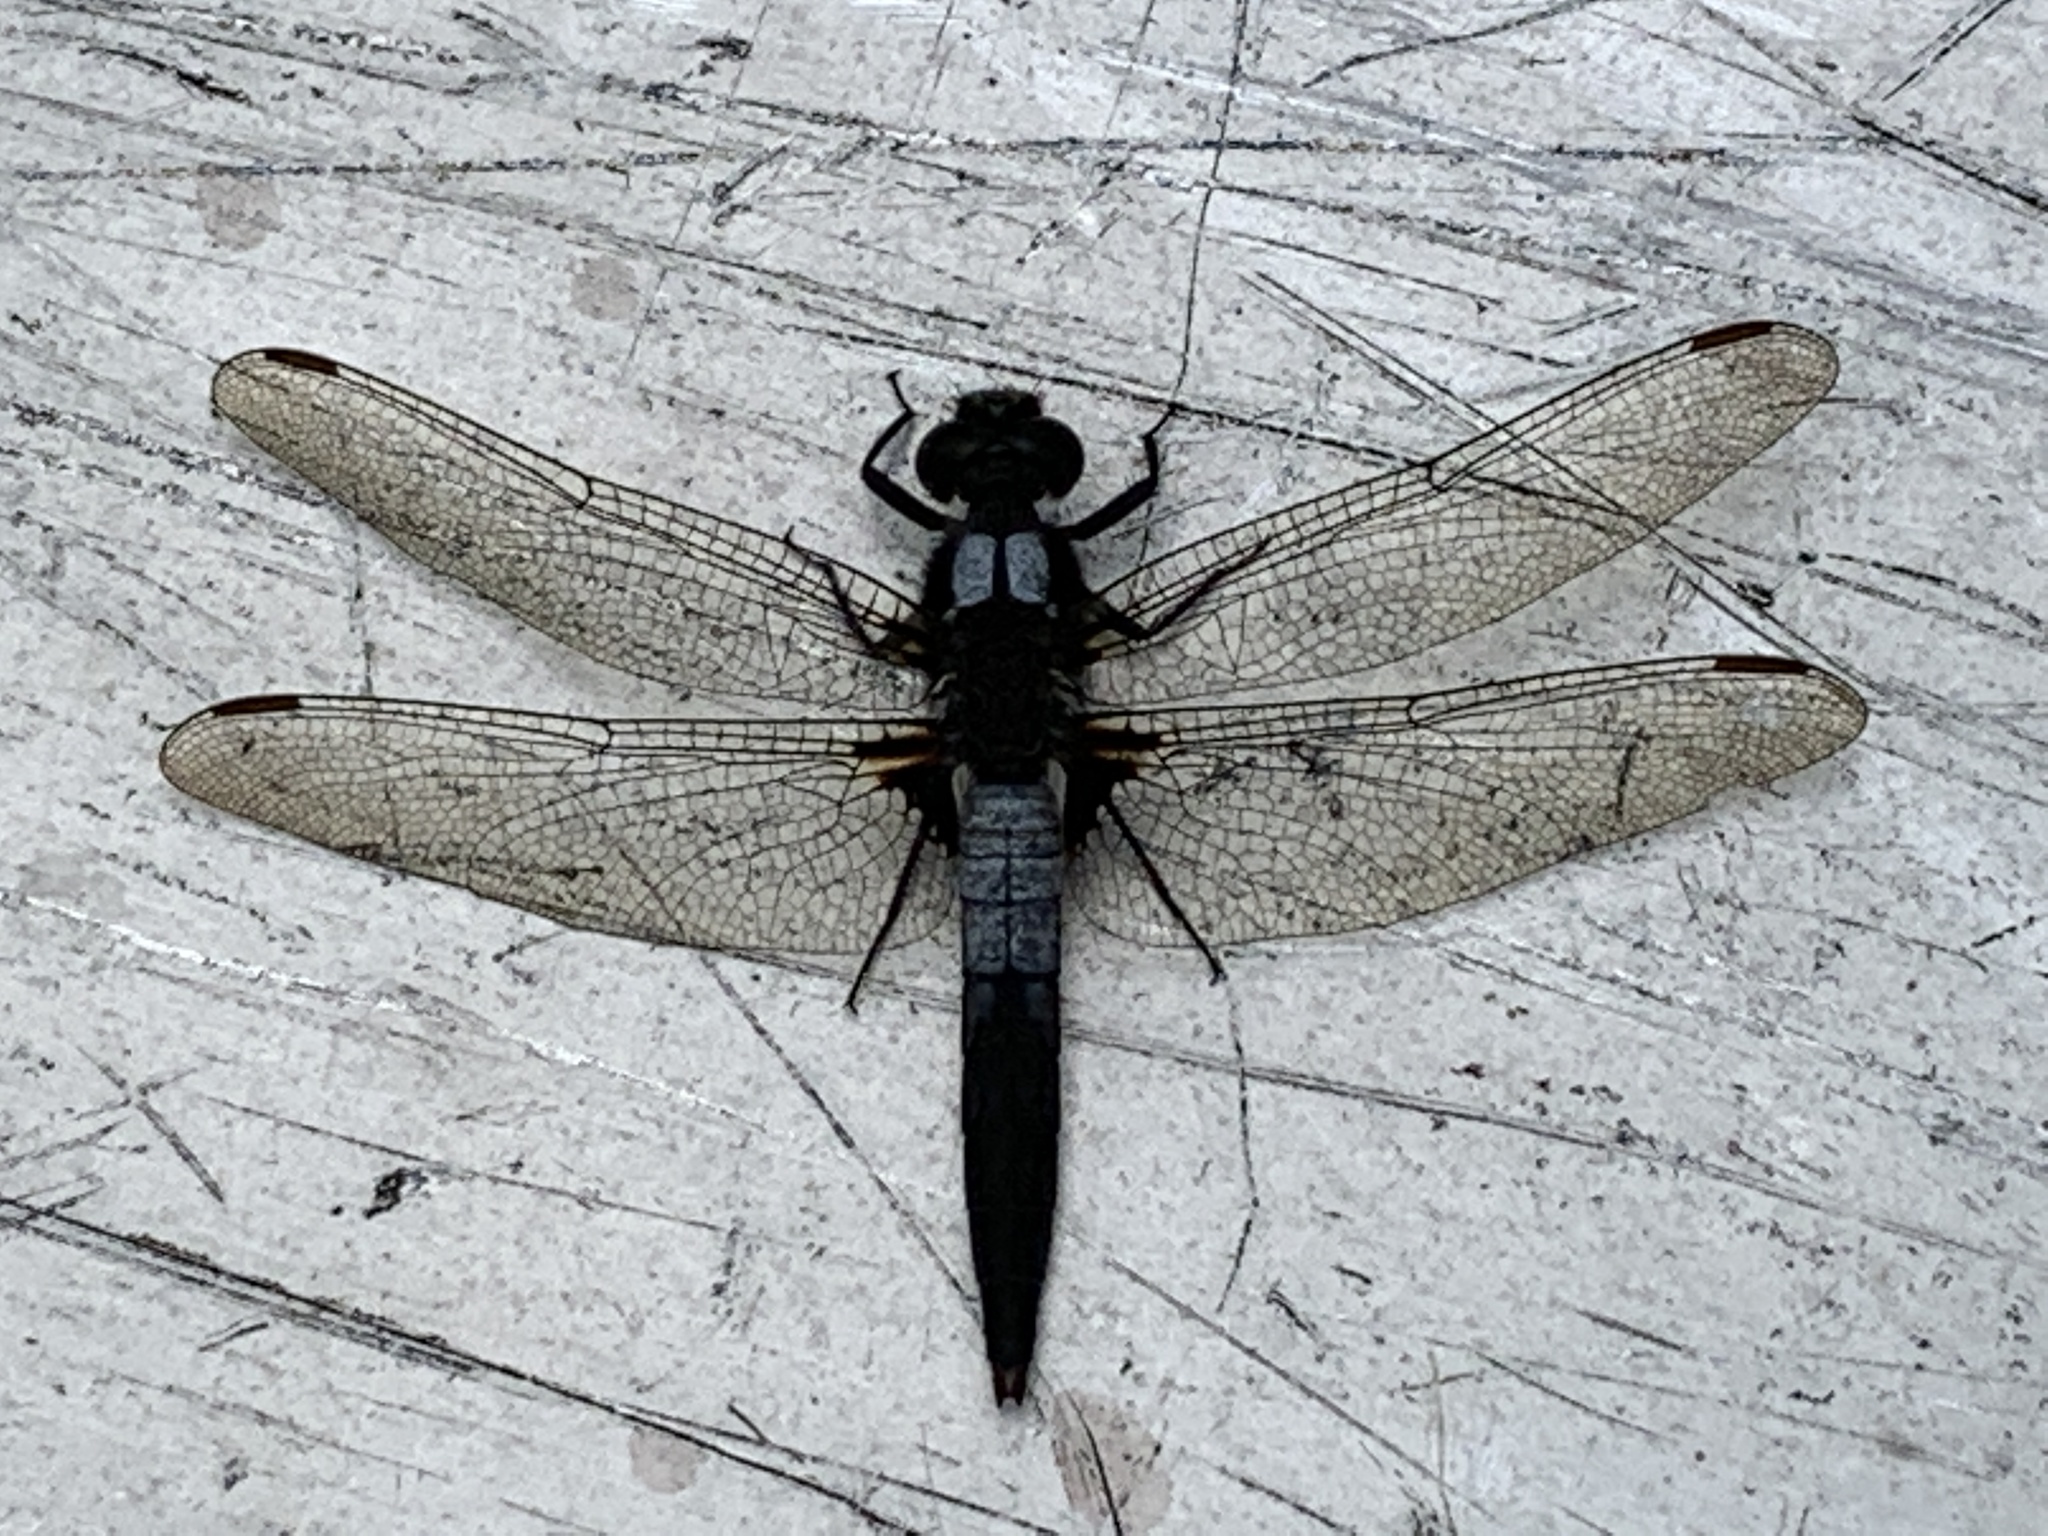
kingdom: Animalia
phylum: Arthropoda
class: Insecta
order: Odonata
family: Libellulidae
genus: Ladona
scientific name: Ladona julia
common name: Chalk-fronted corporal
